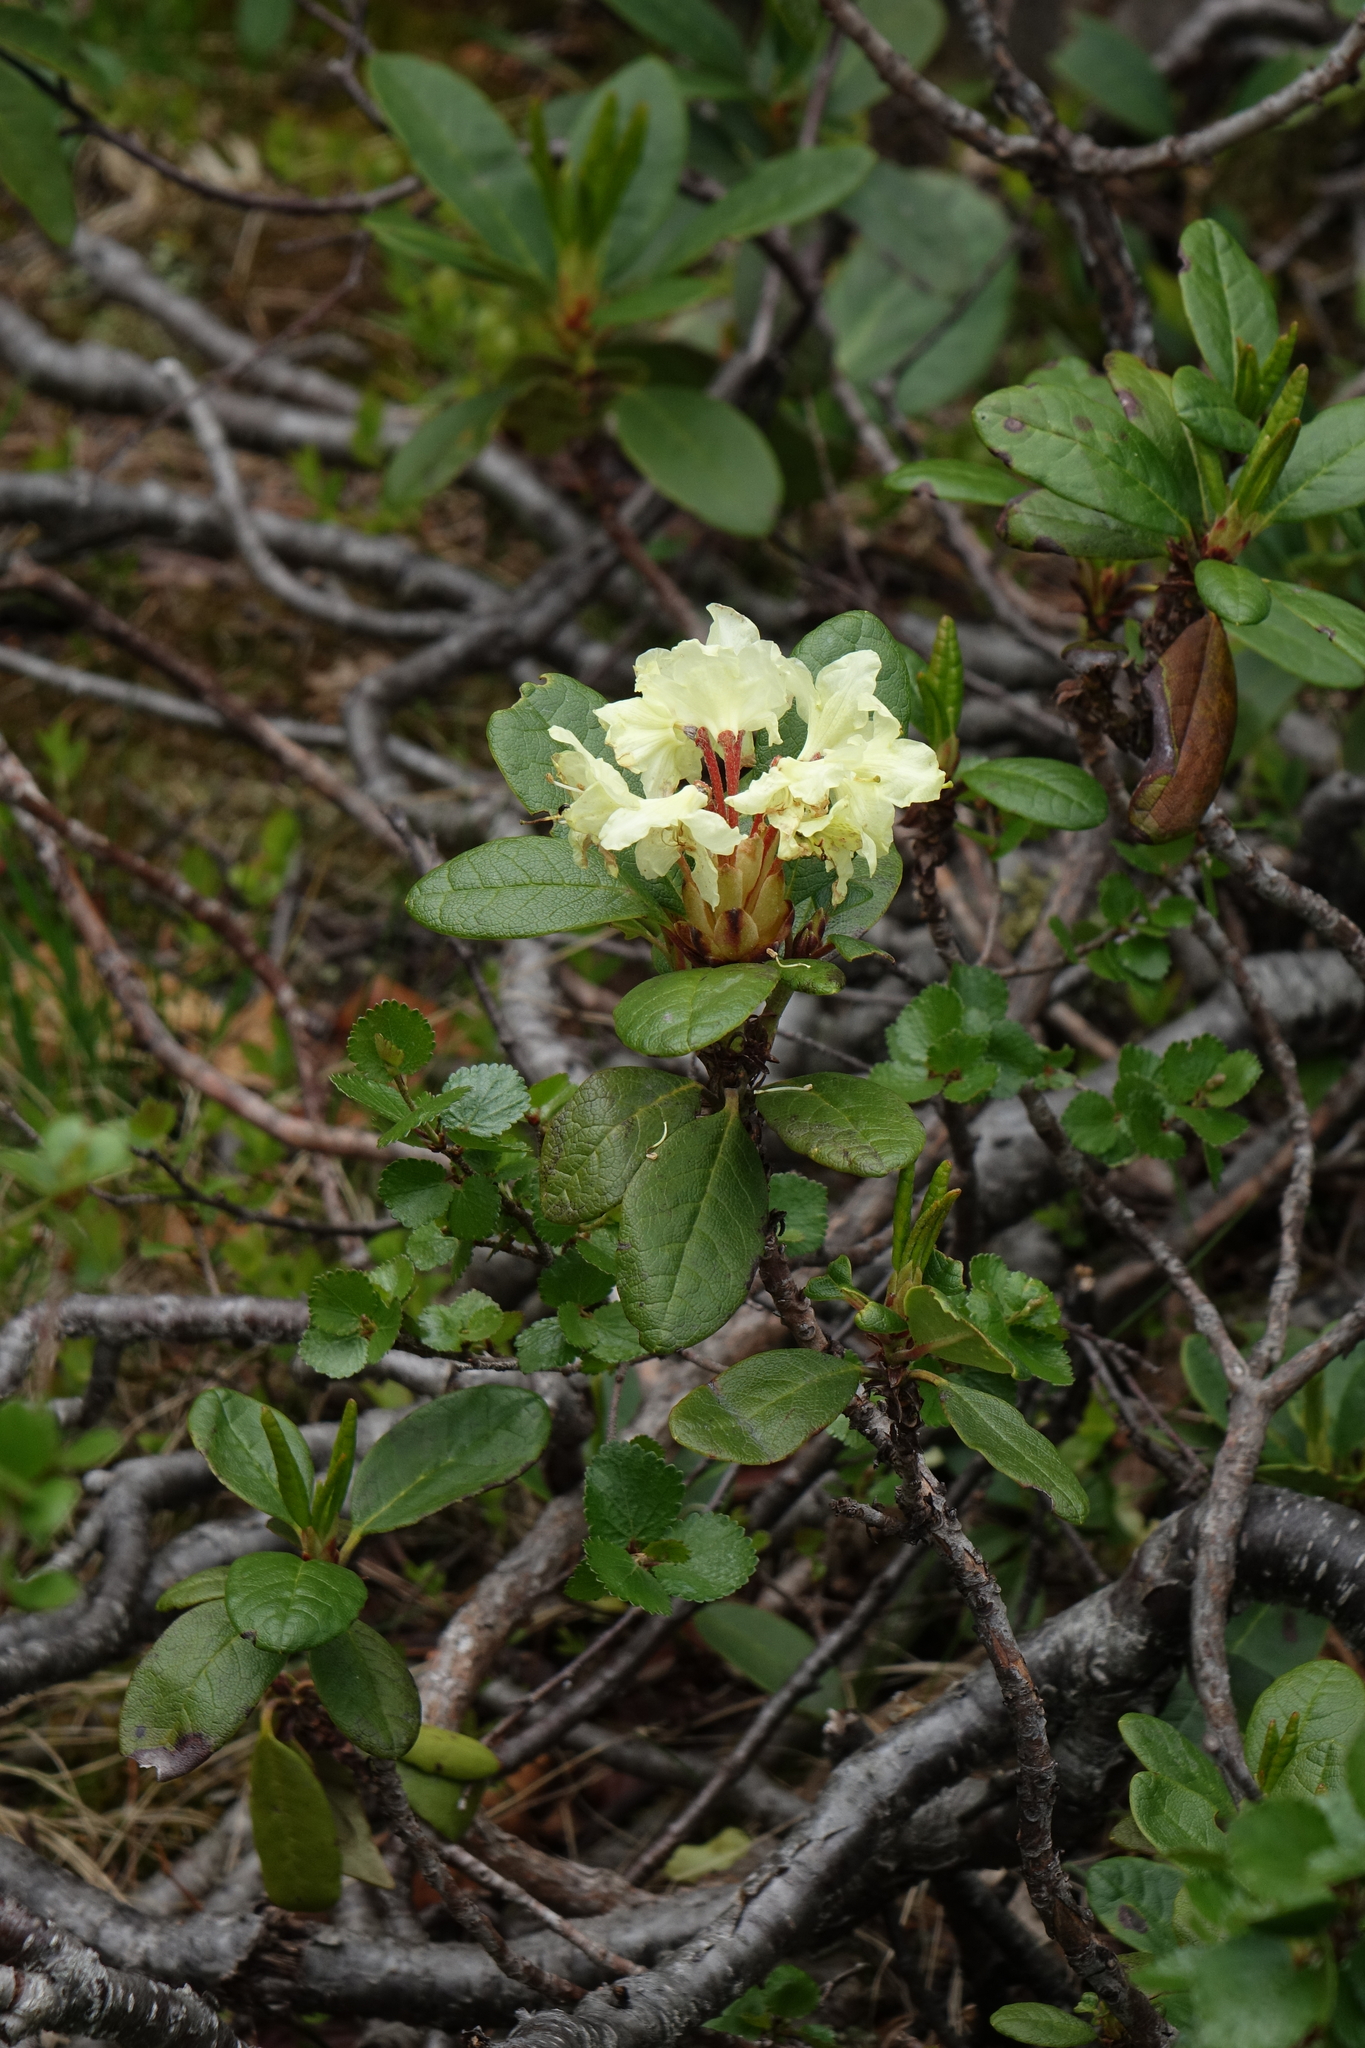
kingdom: Plantae
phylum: Tracheophyta
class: Magnoliopsida
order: Ericales
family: Ericaceae
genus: Rhododendron
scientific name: Rhododendron aureum
